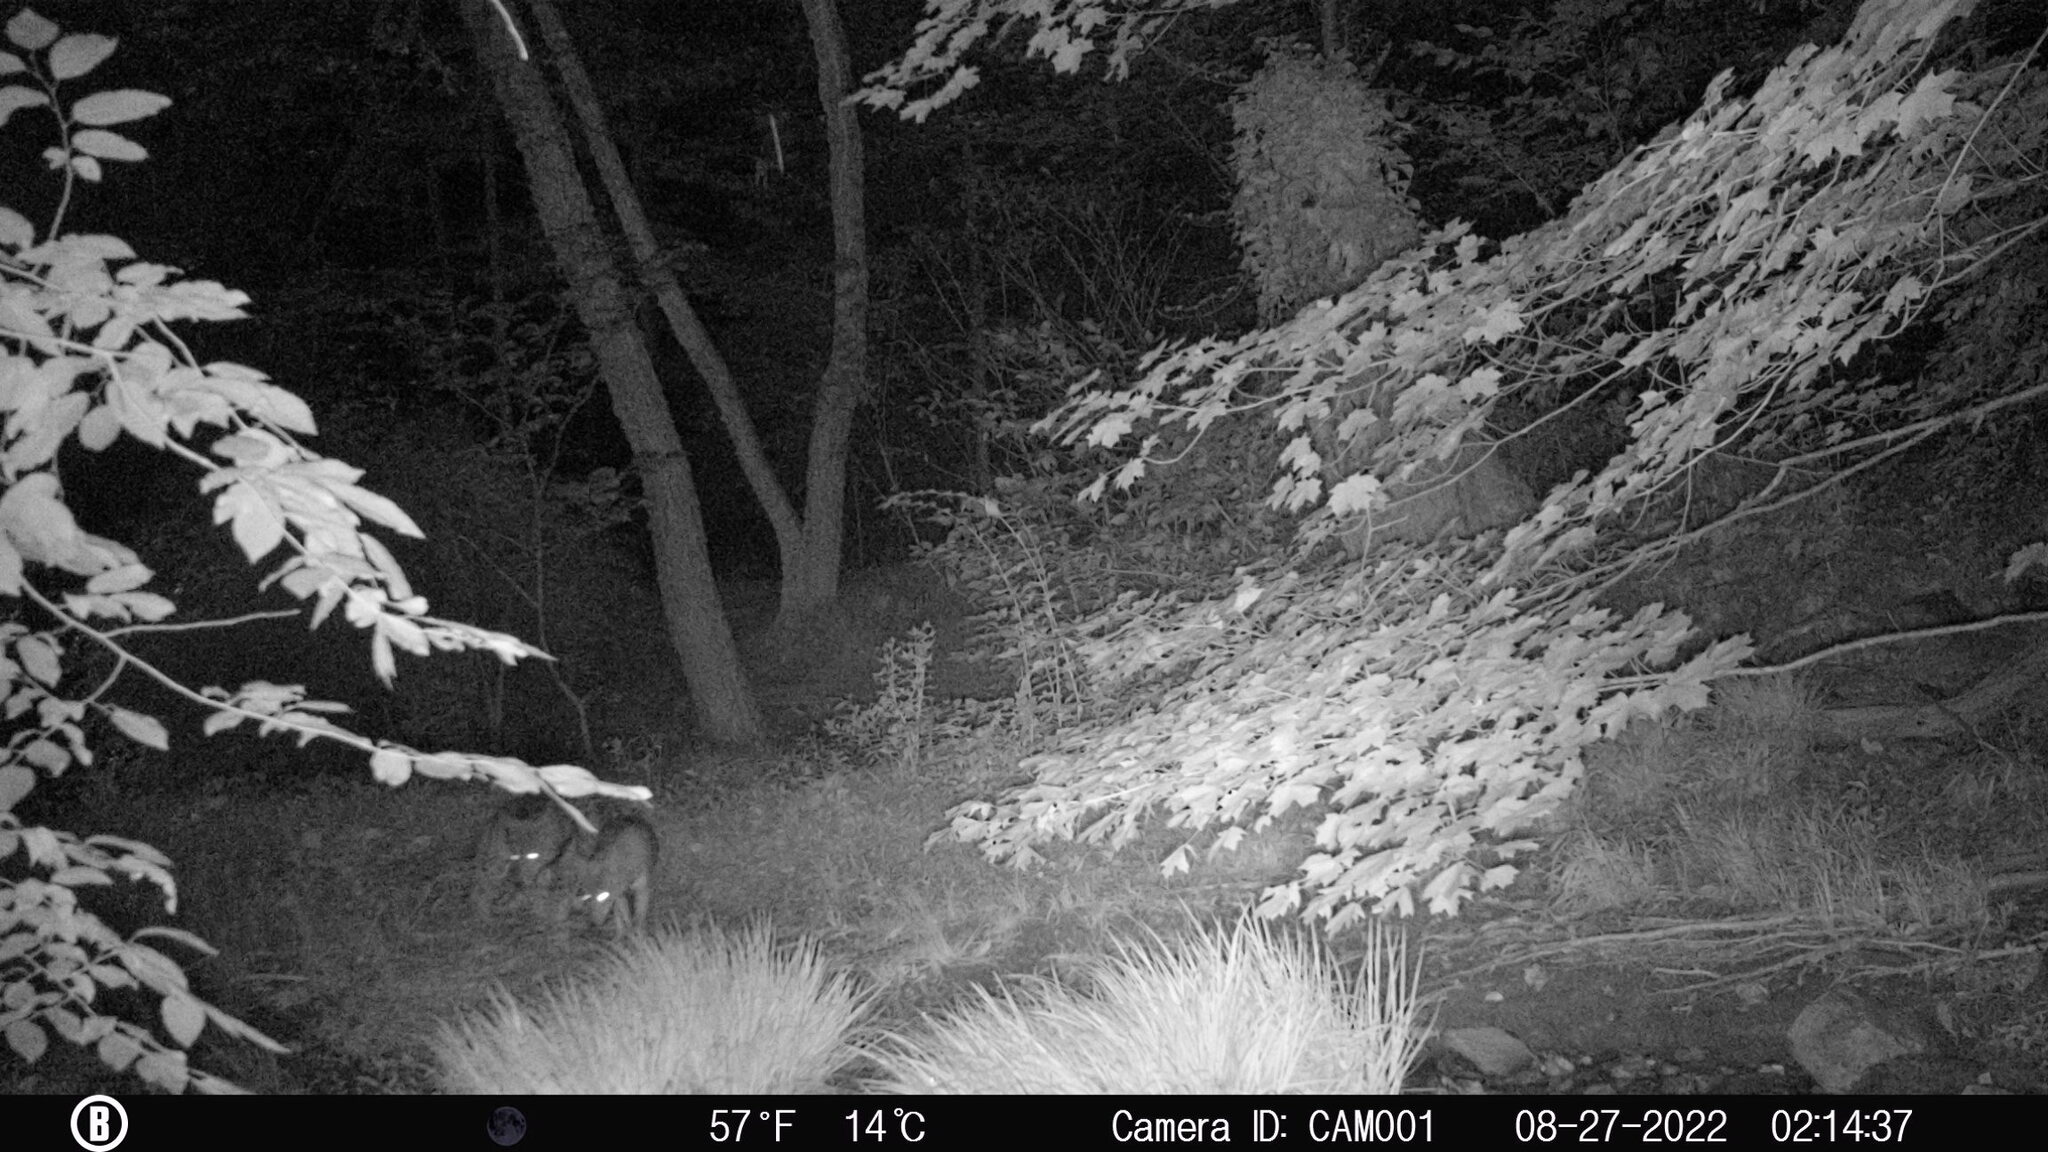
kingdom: Animalia
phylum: Chordata
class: Mammalia
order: Carnivora
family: Canidae
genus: Canis
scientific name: Canis latrans
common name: Coyote
